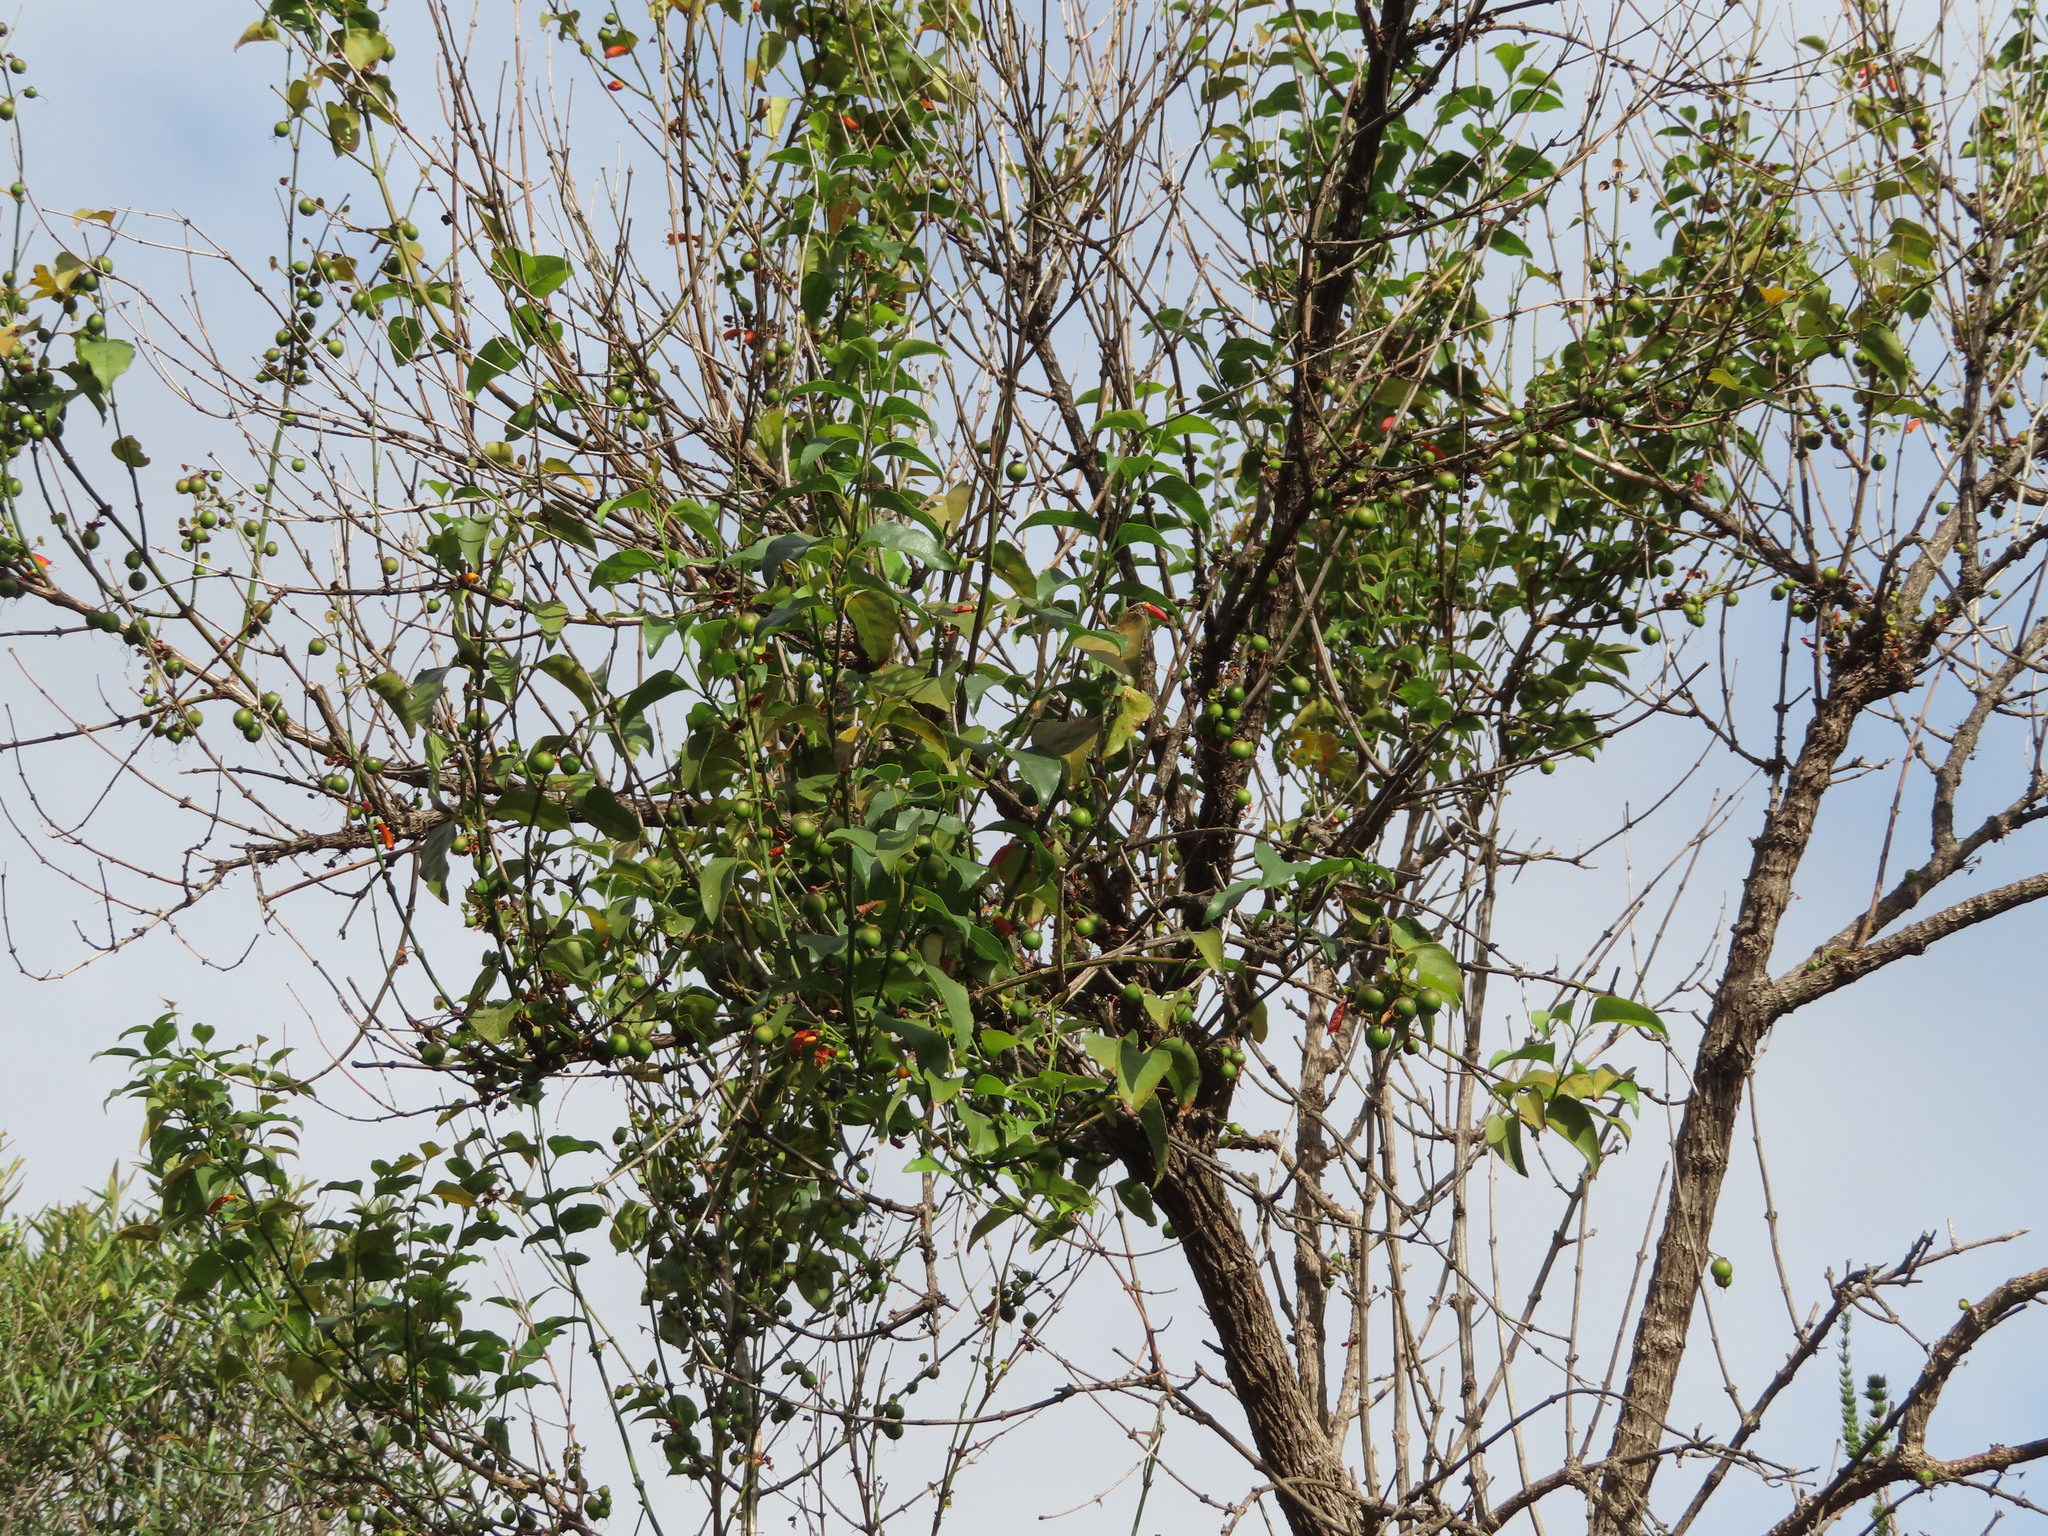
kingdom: Plantae
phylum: Tracheophyta
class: Magnoliopsida
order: Lamiales
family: Stilbaceae
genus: Halleria
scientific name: Halleria lucida
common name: Tree fuschia
